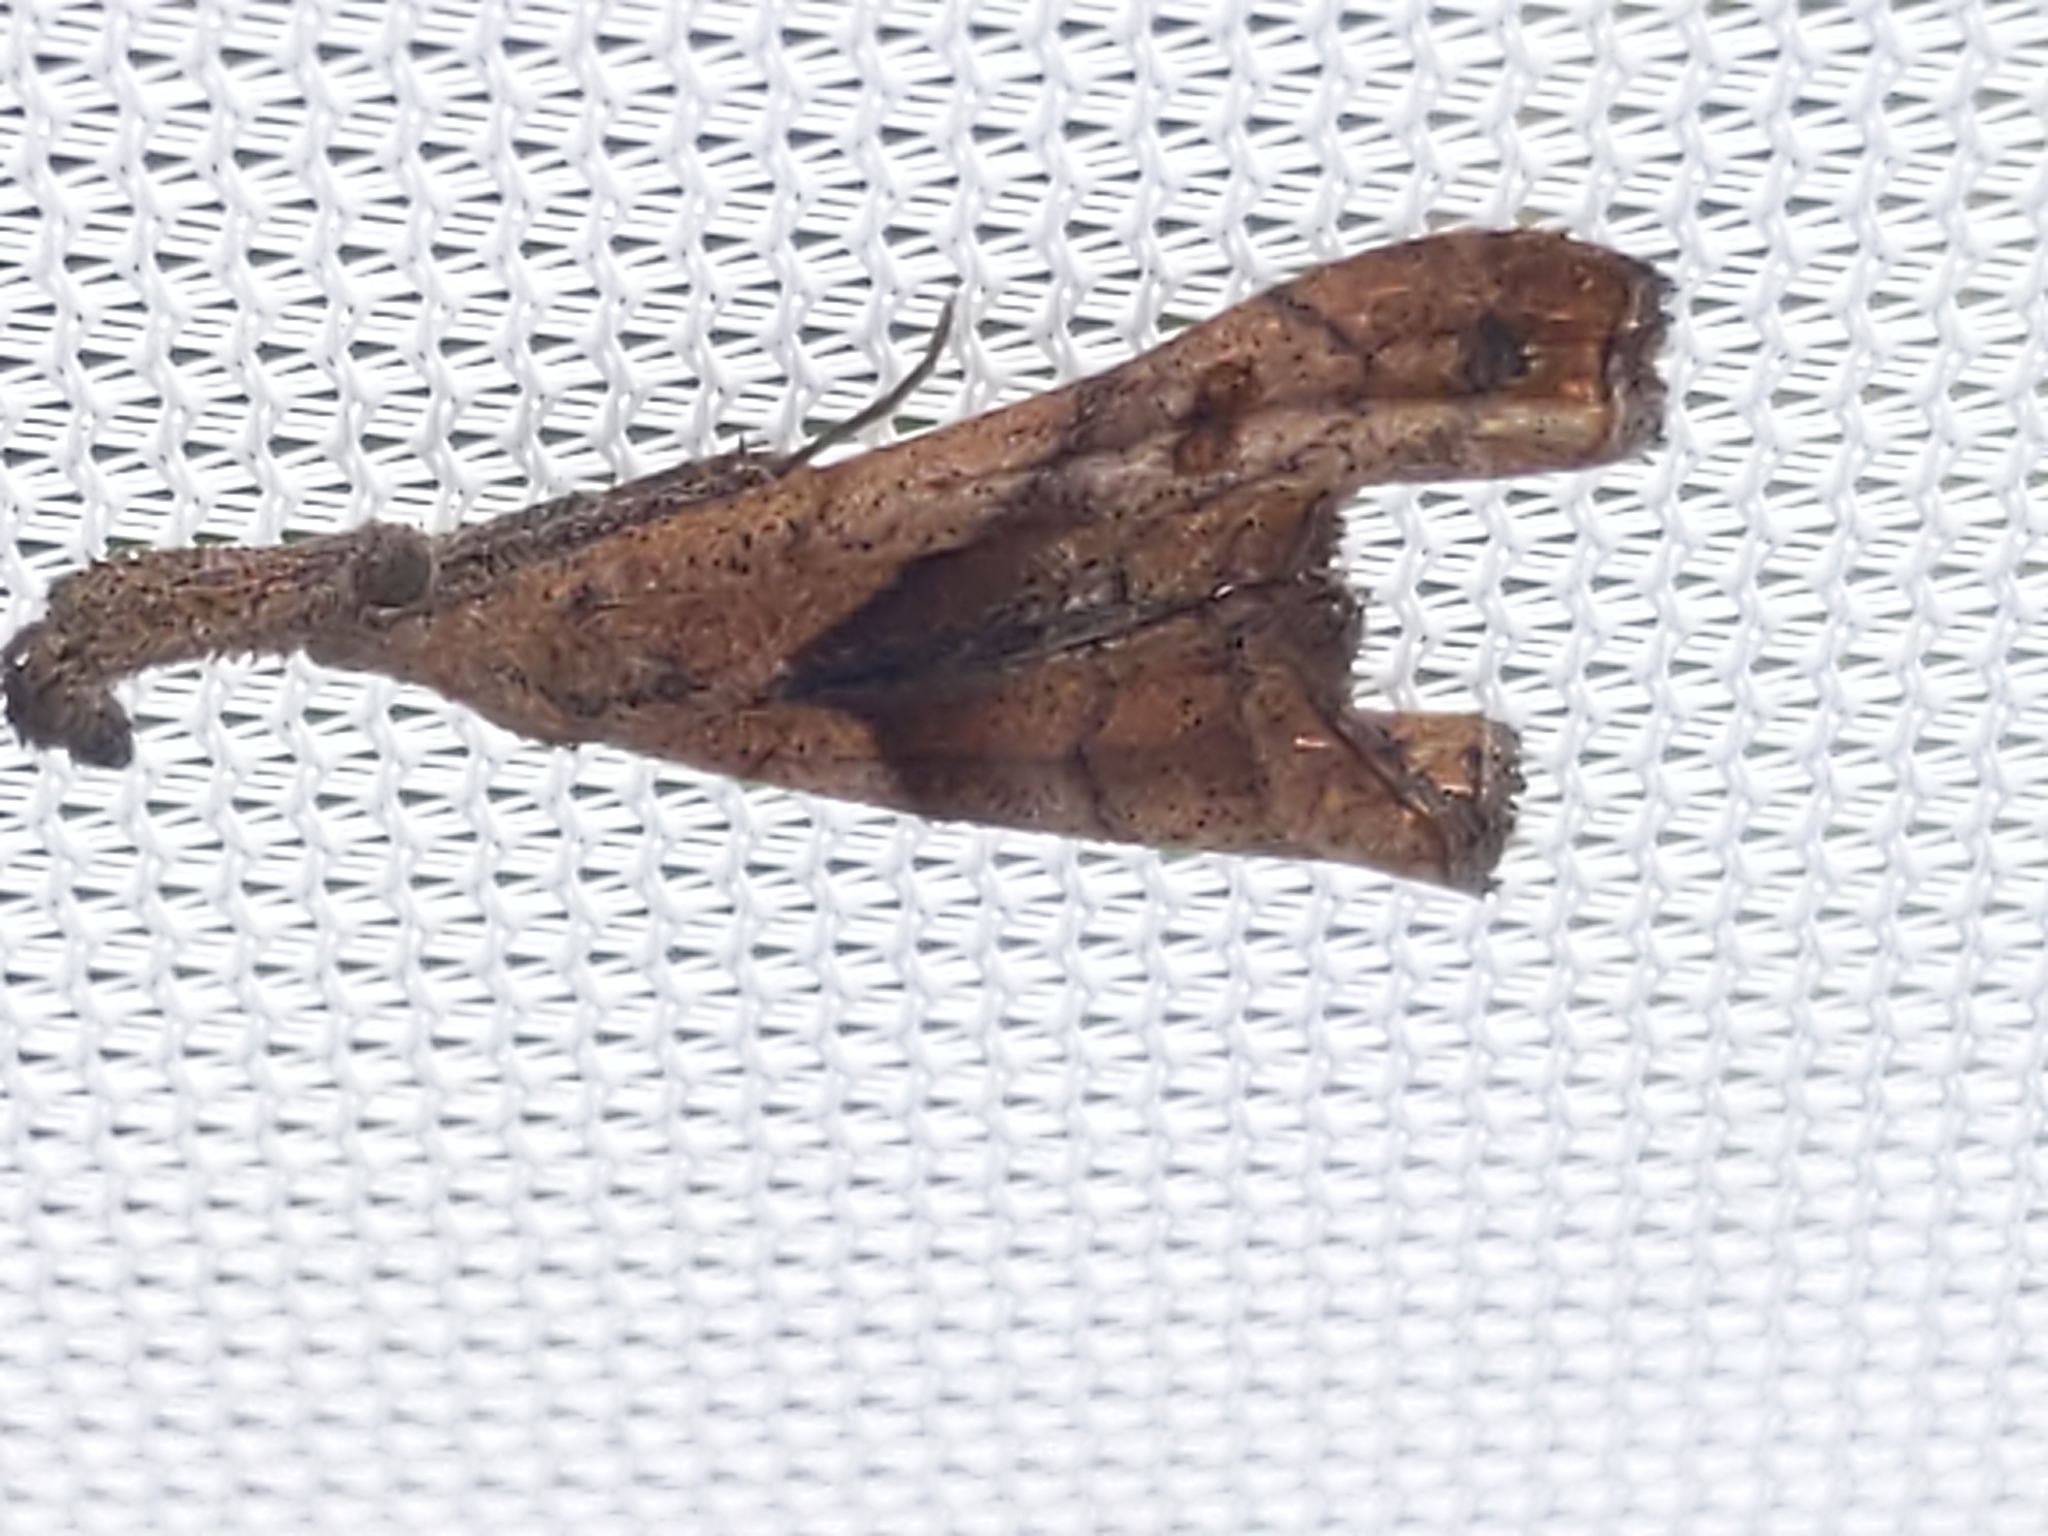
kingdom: Animalia
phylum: Arthropoda
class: Insecta
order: Lepidoptera
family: Erebidae
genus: Palthis
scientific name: Palthis angulalis
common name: Dark-spotted palthis moth
